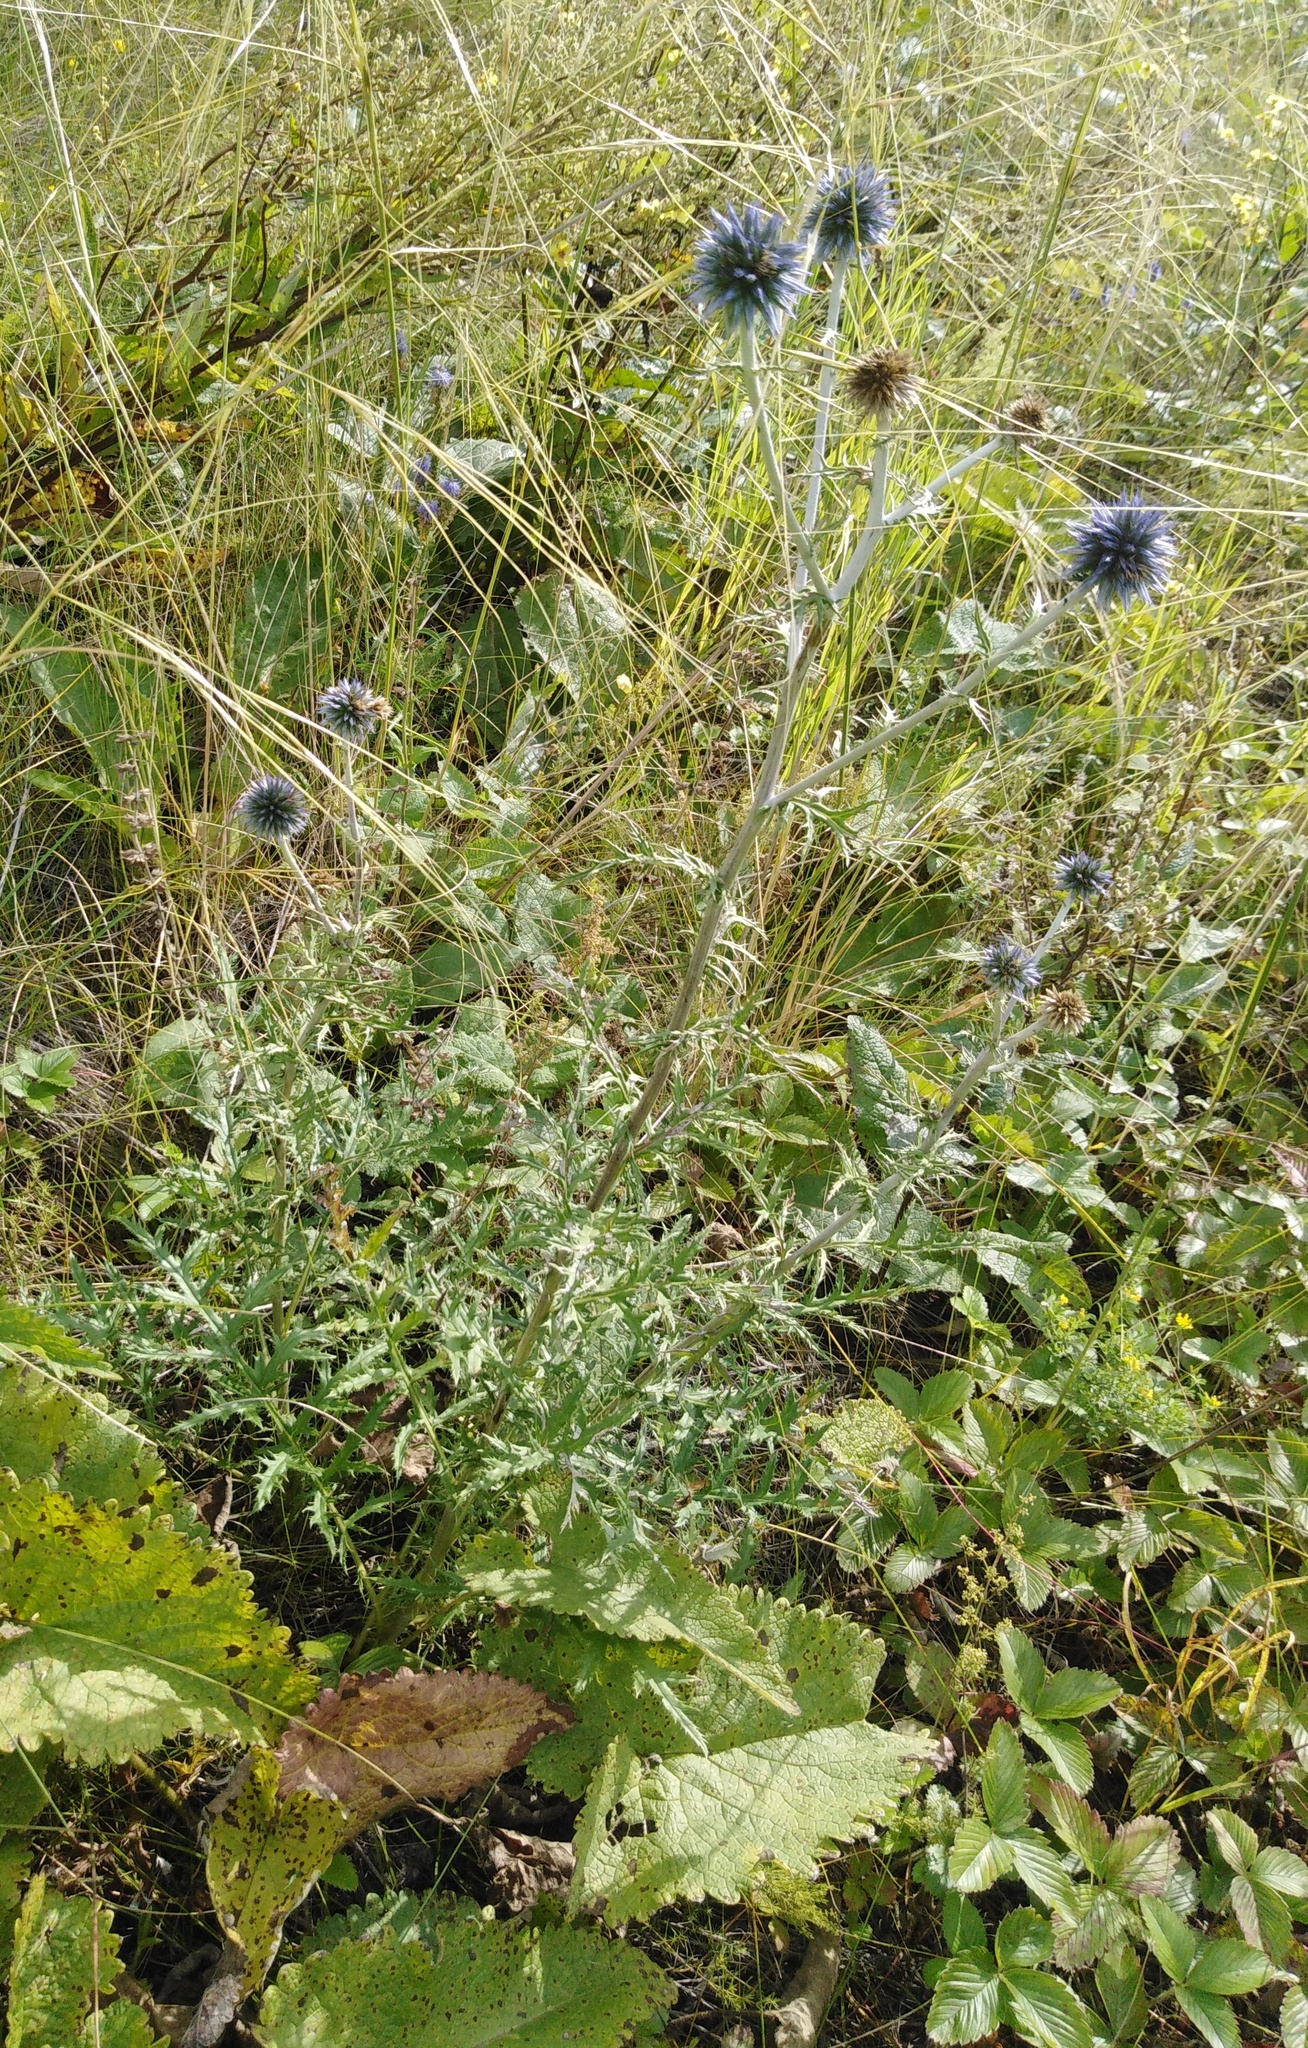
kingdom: Plantae
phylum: Tracheophyta
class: Magnoliopsida
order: Asterales
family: Asteraceae
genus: Echinops
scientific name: Echinops ritro
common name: Globe thistle
